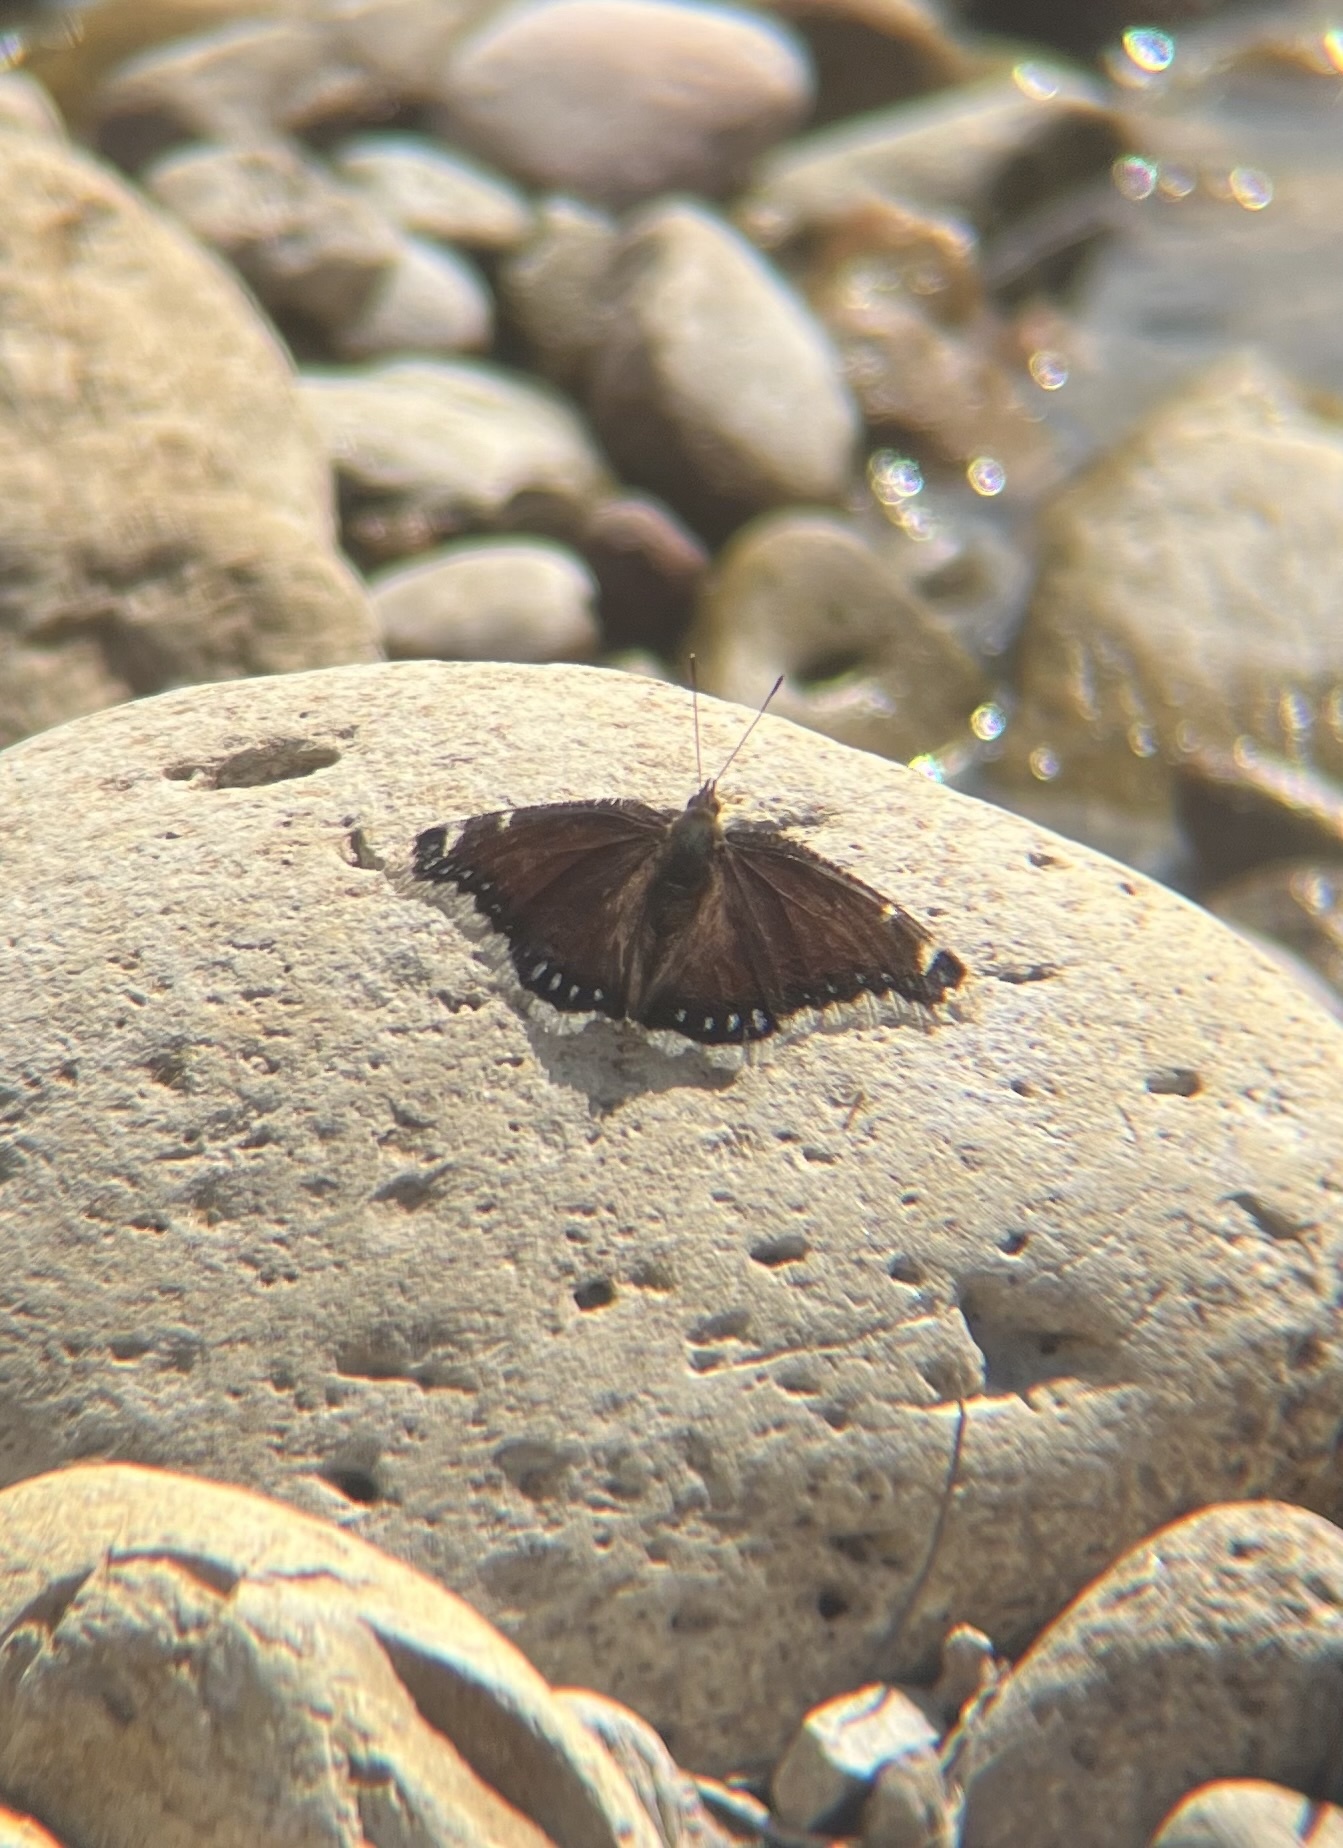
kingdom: Animalia
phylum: Arthropoda
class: Insecta
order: Lepidoptera
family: Nymphalidae
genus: Nymphalis
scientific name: Nymphalis antiopa
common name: Camberwell beauty
